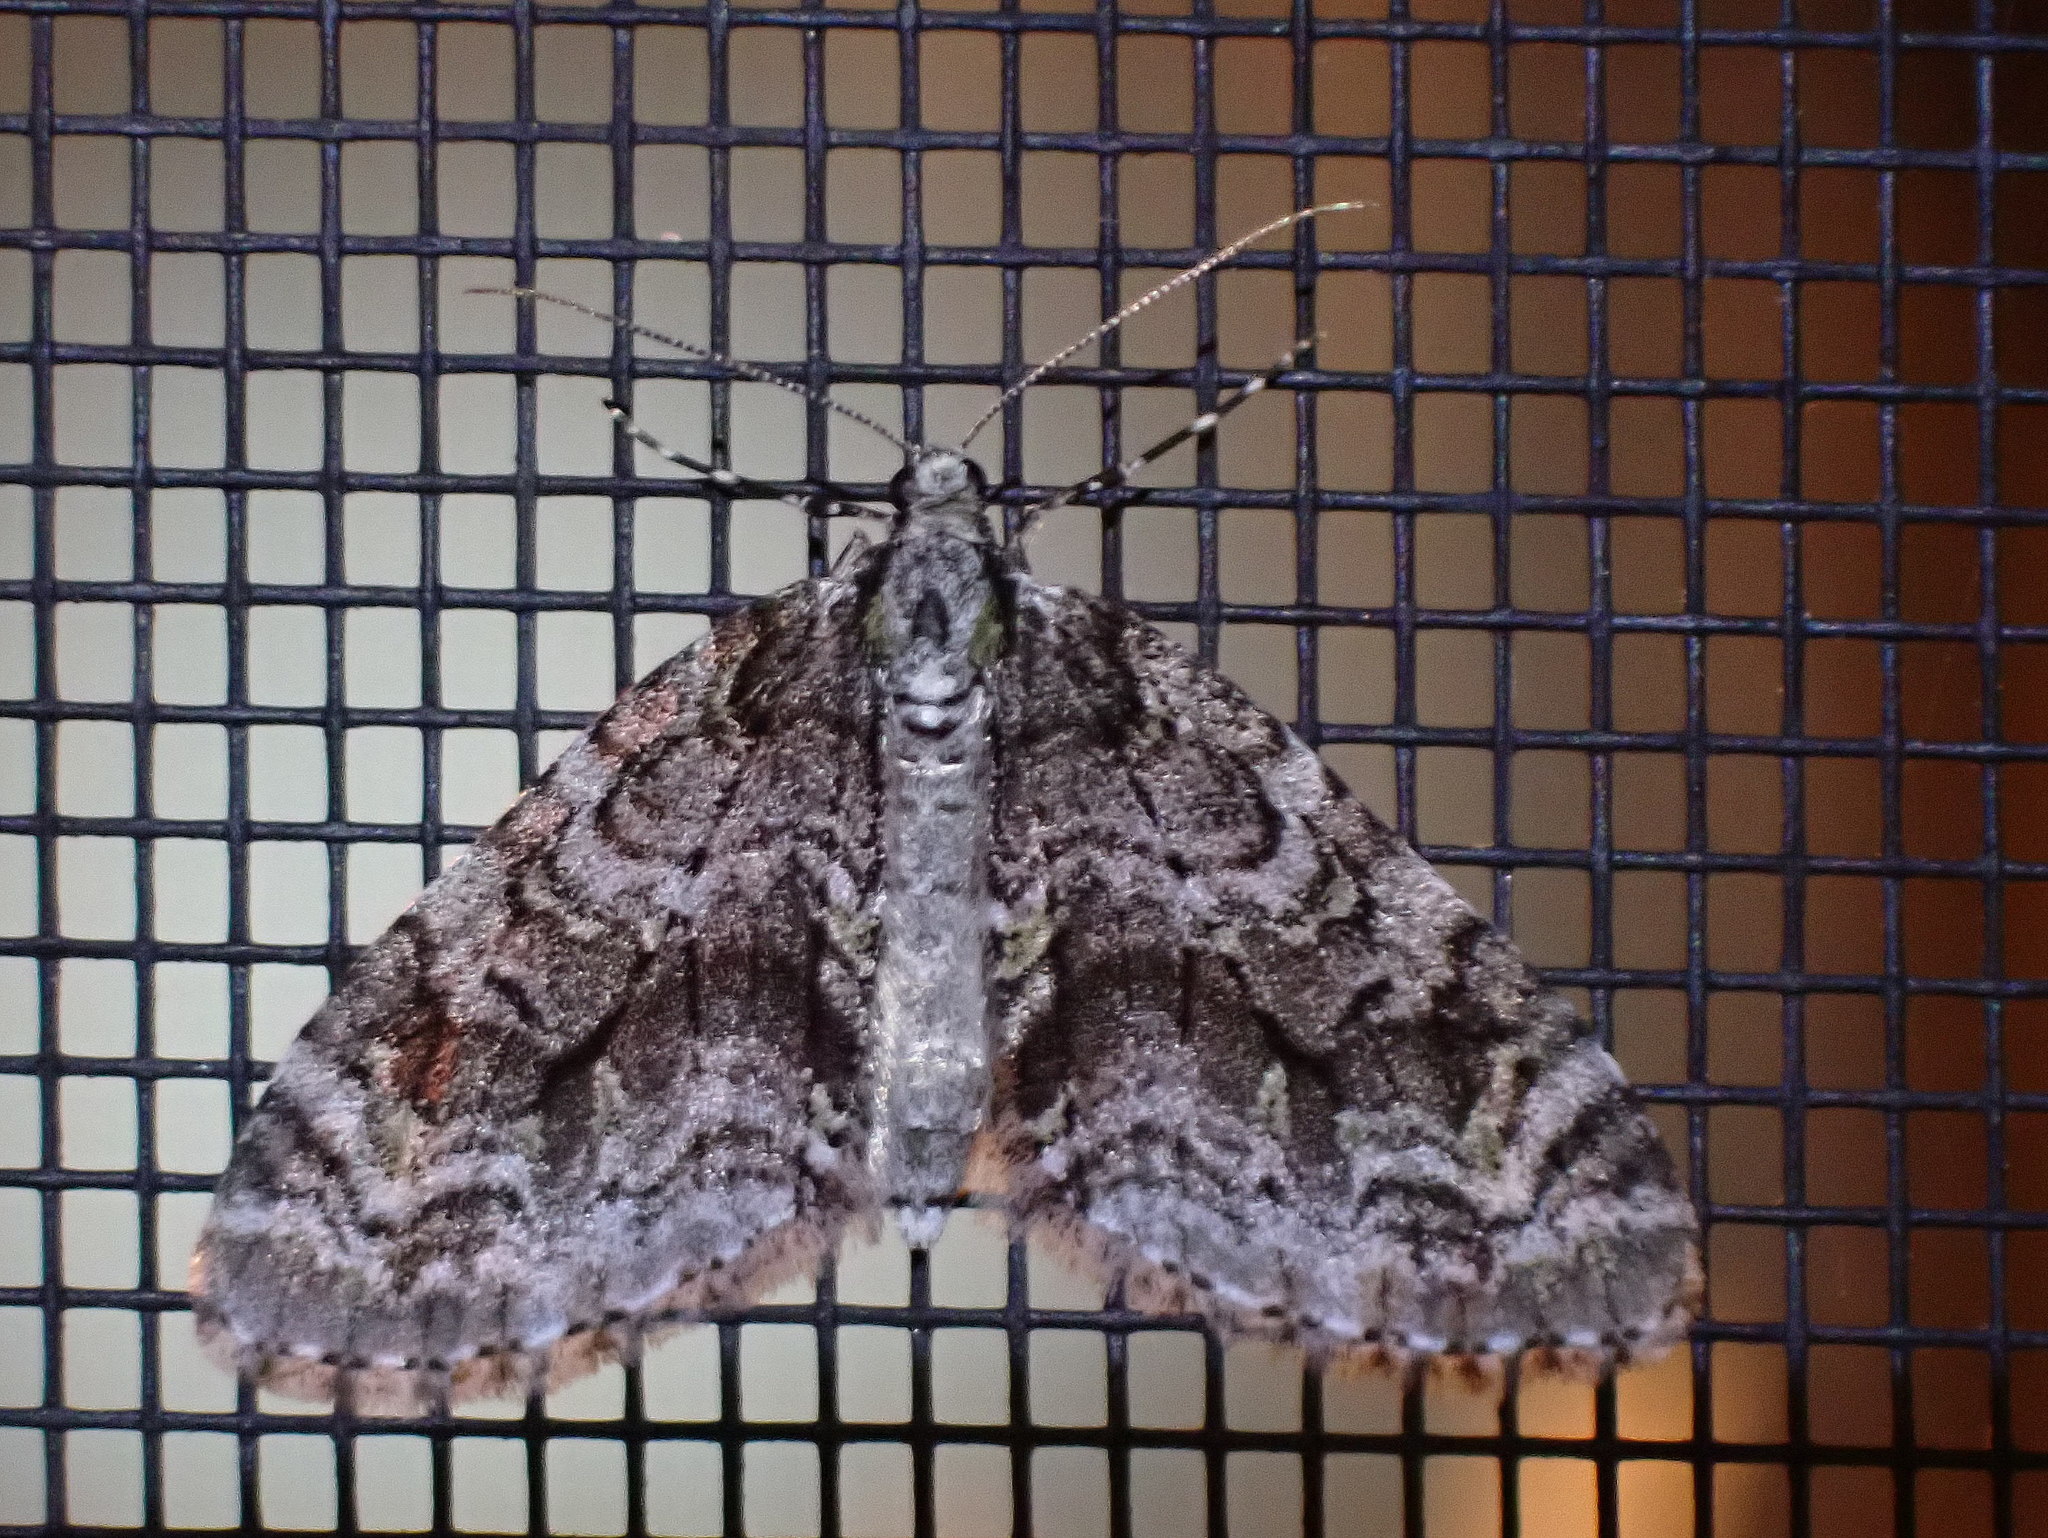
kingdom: Animalia
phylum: Arthropoda
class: Insecta
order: Lepidoptera
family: Geometridae
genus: Cladara
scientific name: Cladara limitaria
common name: Mottled gray carpet
